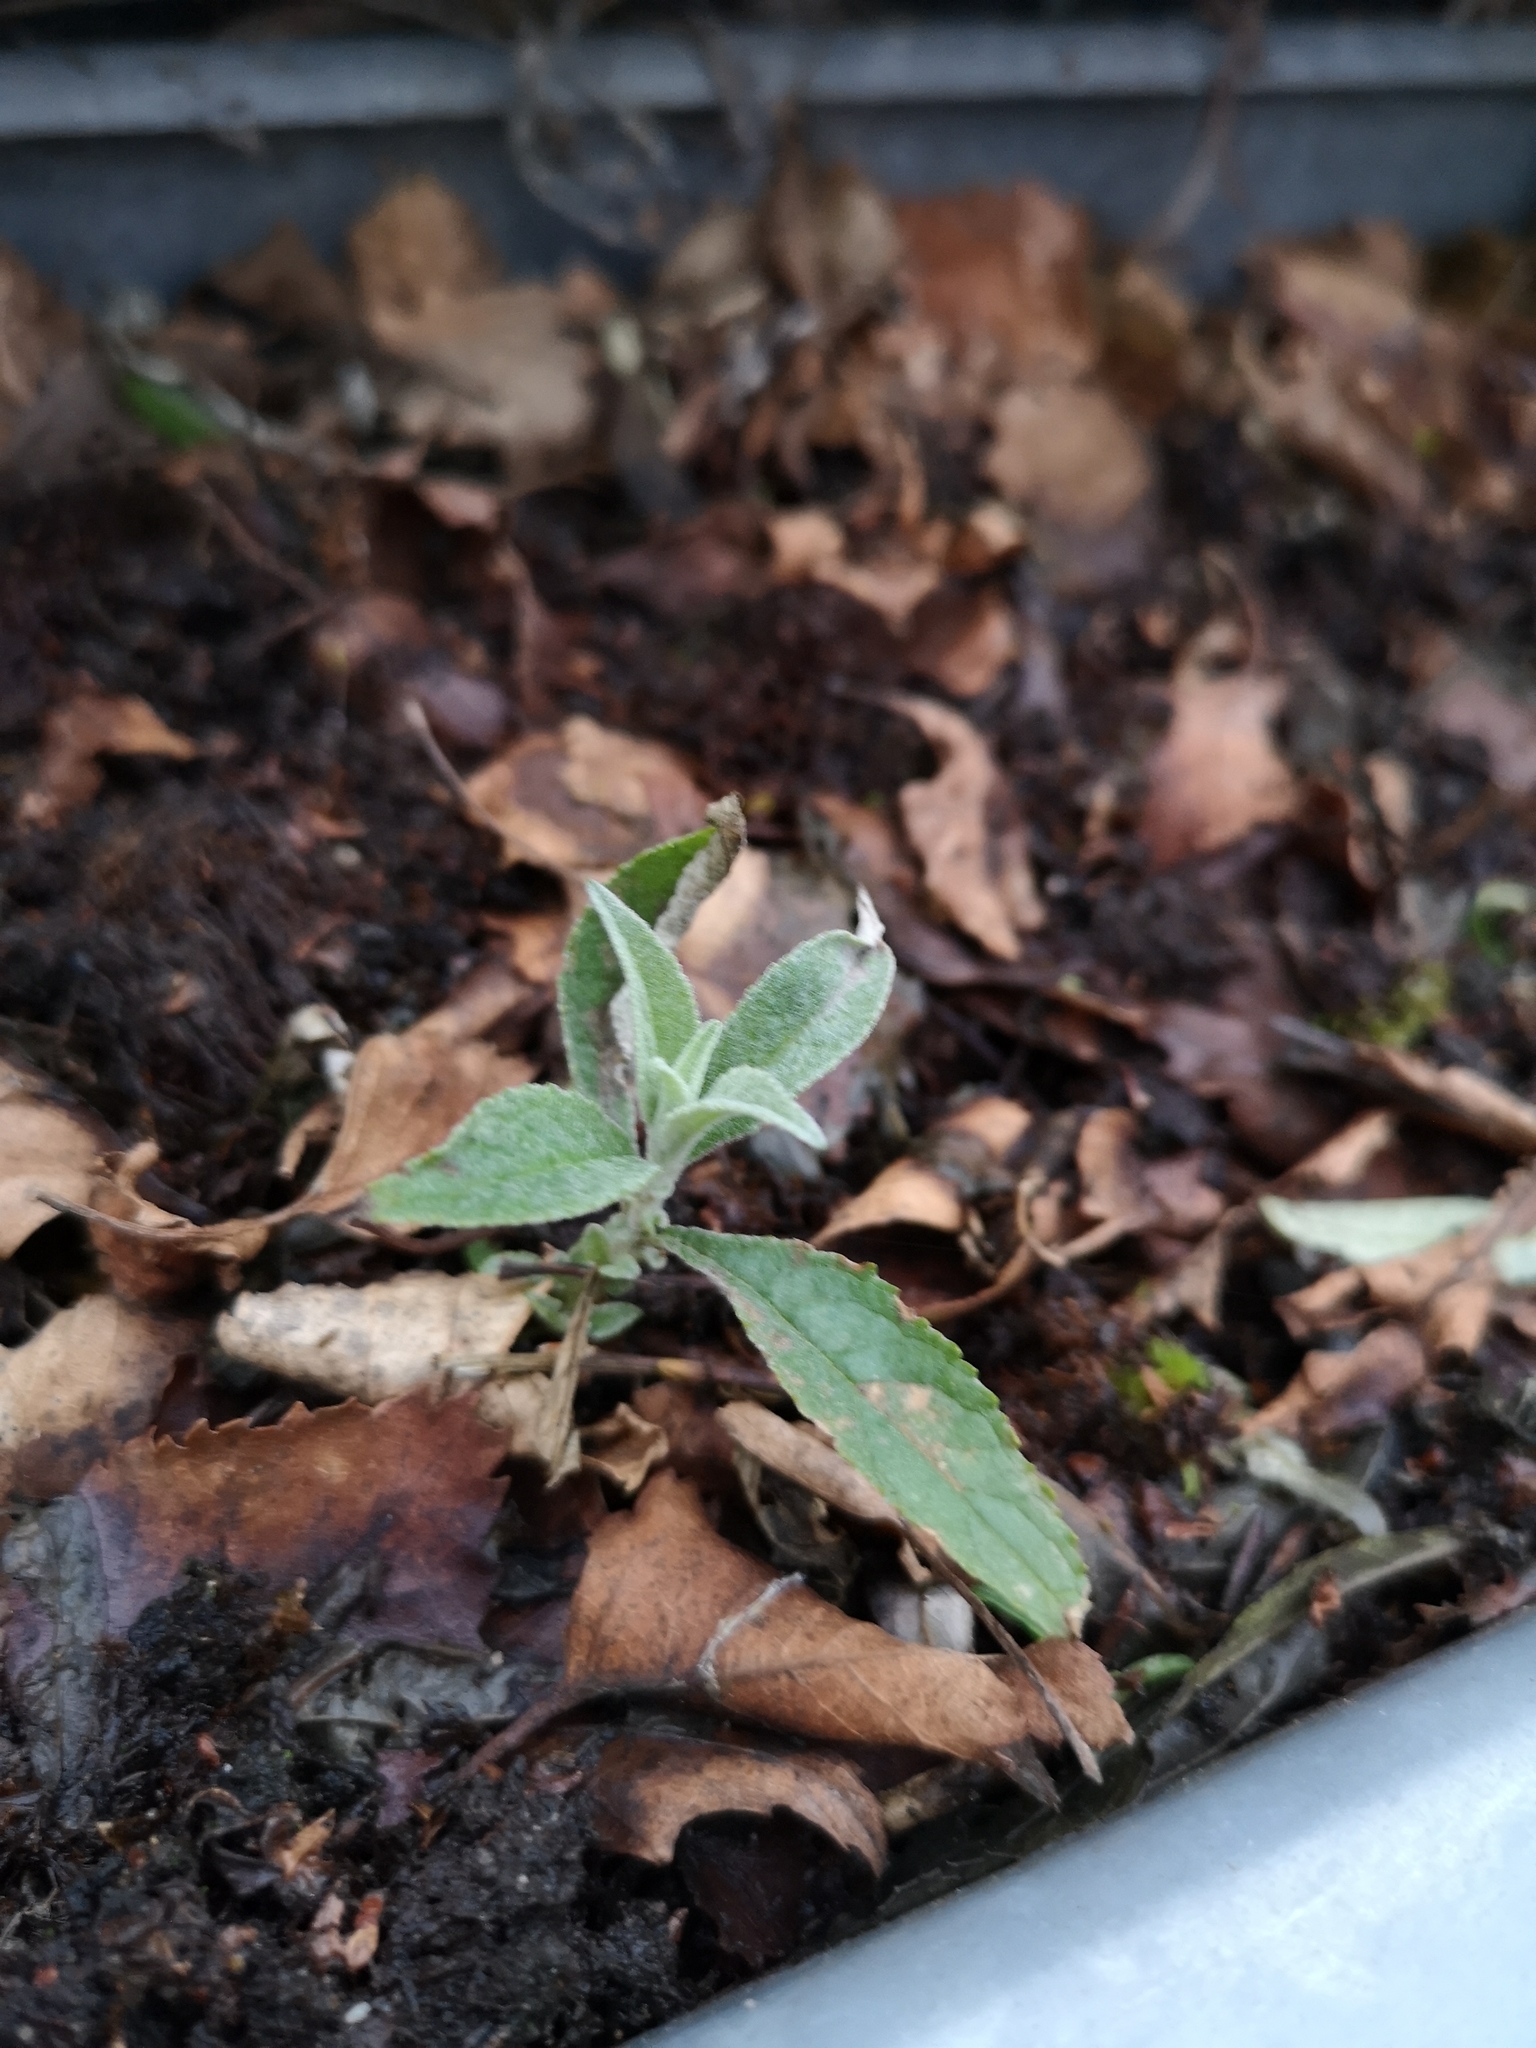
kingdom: Plantae
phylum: Tracheophyta
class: Magnoliopsida
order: Lamiales
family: Scrophulariaceae
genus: Buddleja
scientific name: Buddleja davidii
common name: Butterfly-bush
